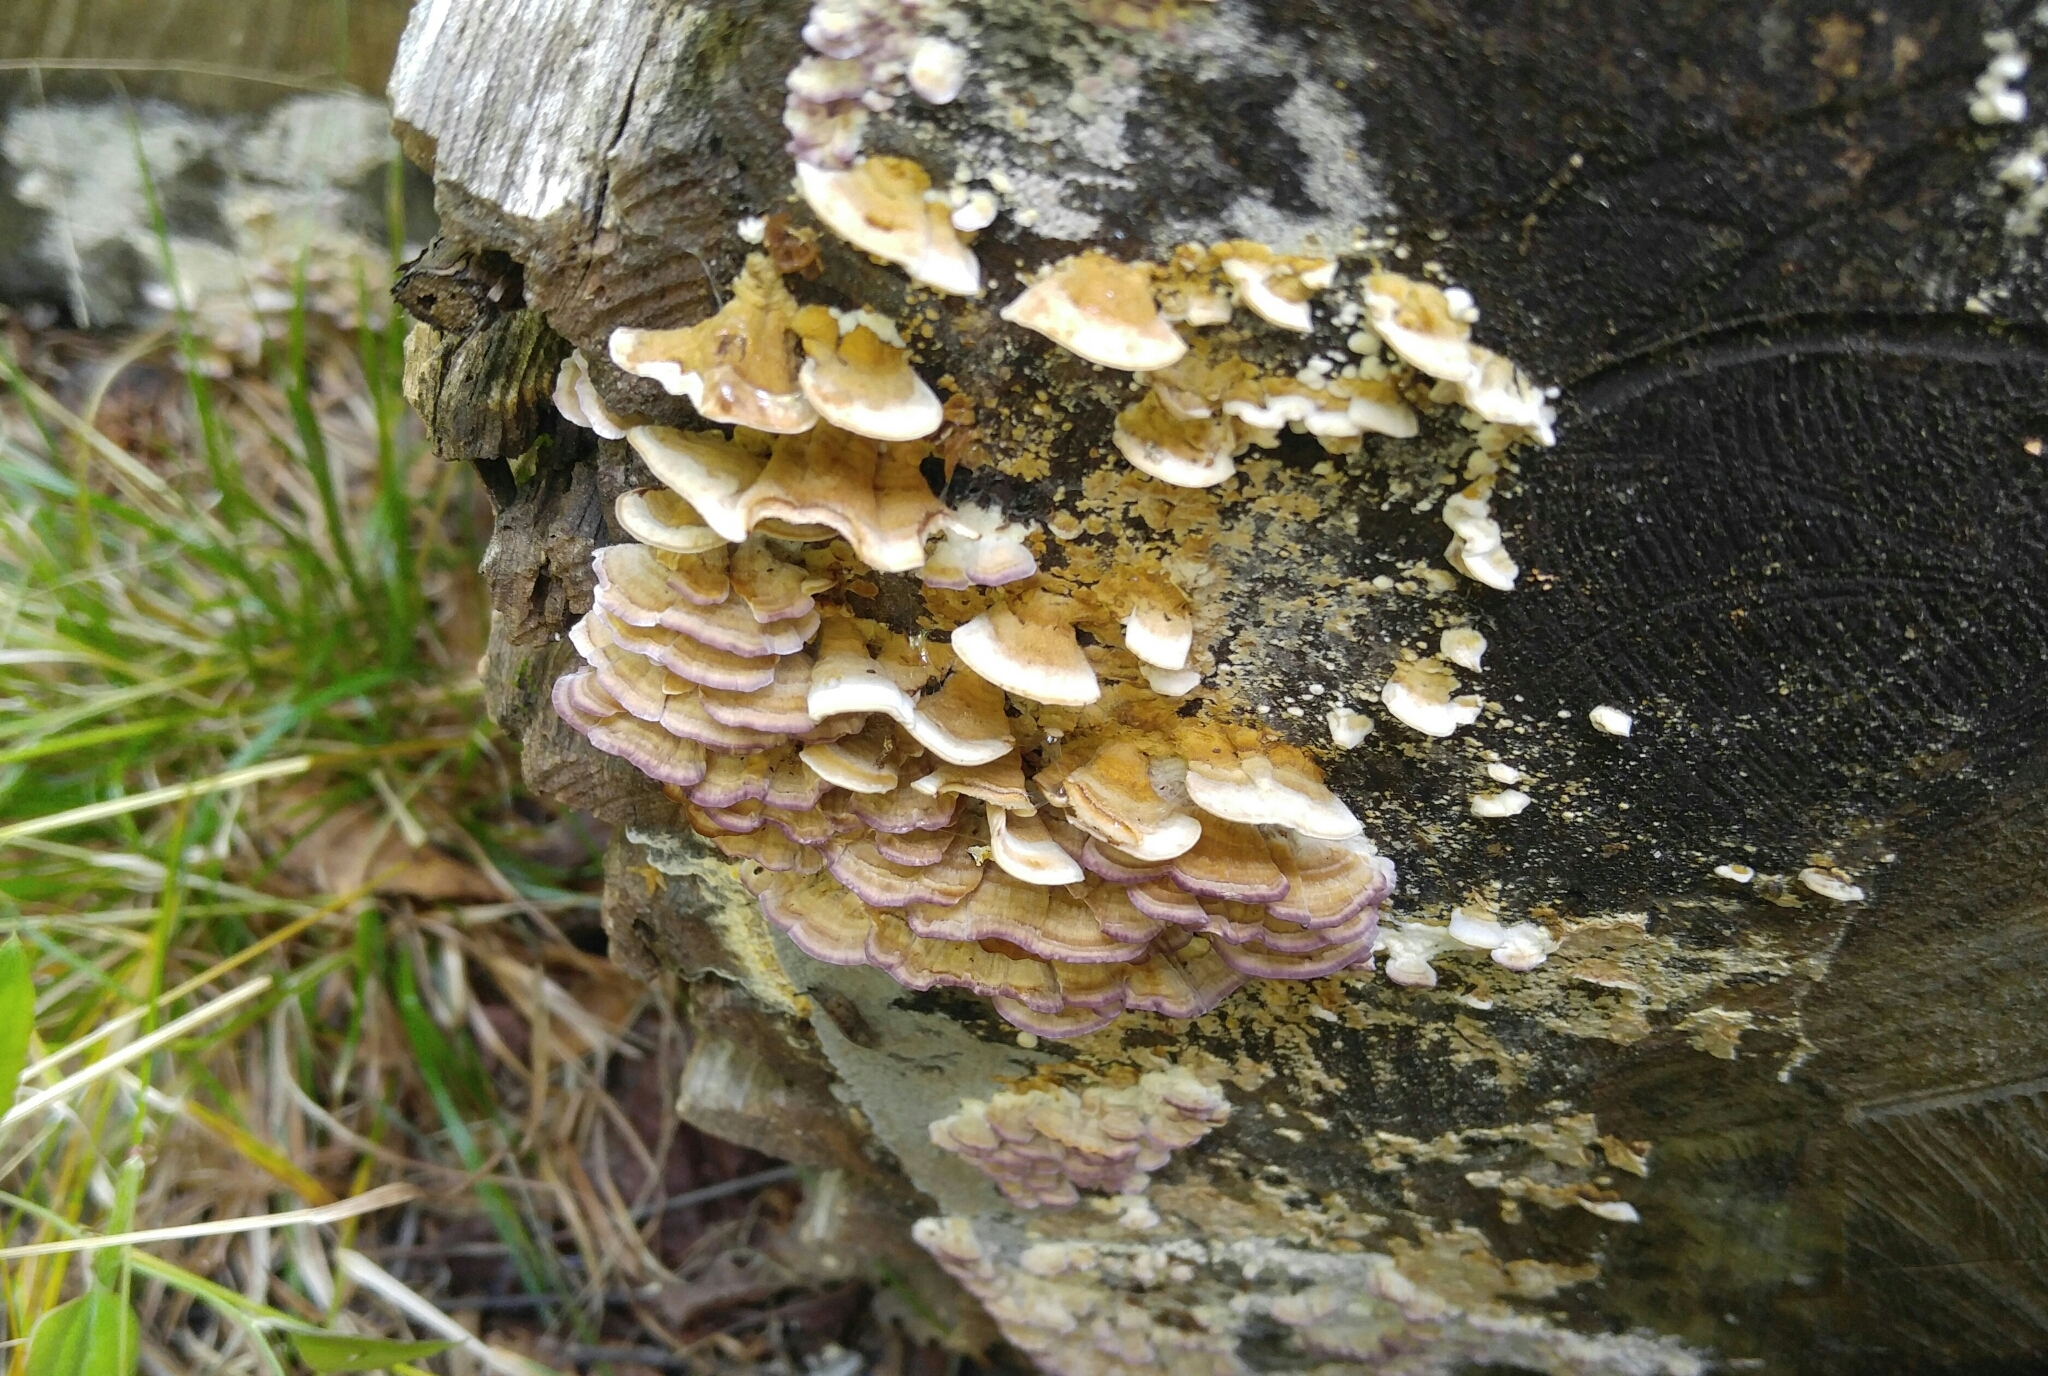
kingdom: Fungi
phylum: Basidiomycota
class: Agaricomycetes
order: Hymenochaetales
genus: Trichaptum
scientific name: Trichaptum abietinum
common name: Purplepore bracket
